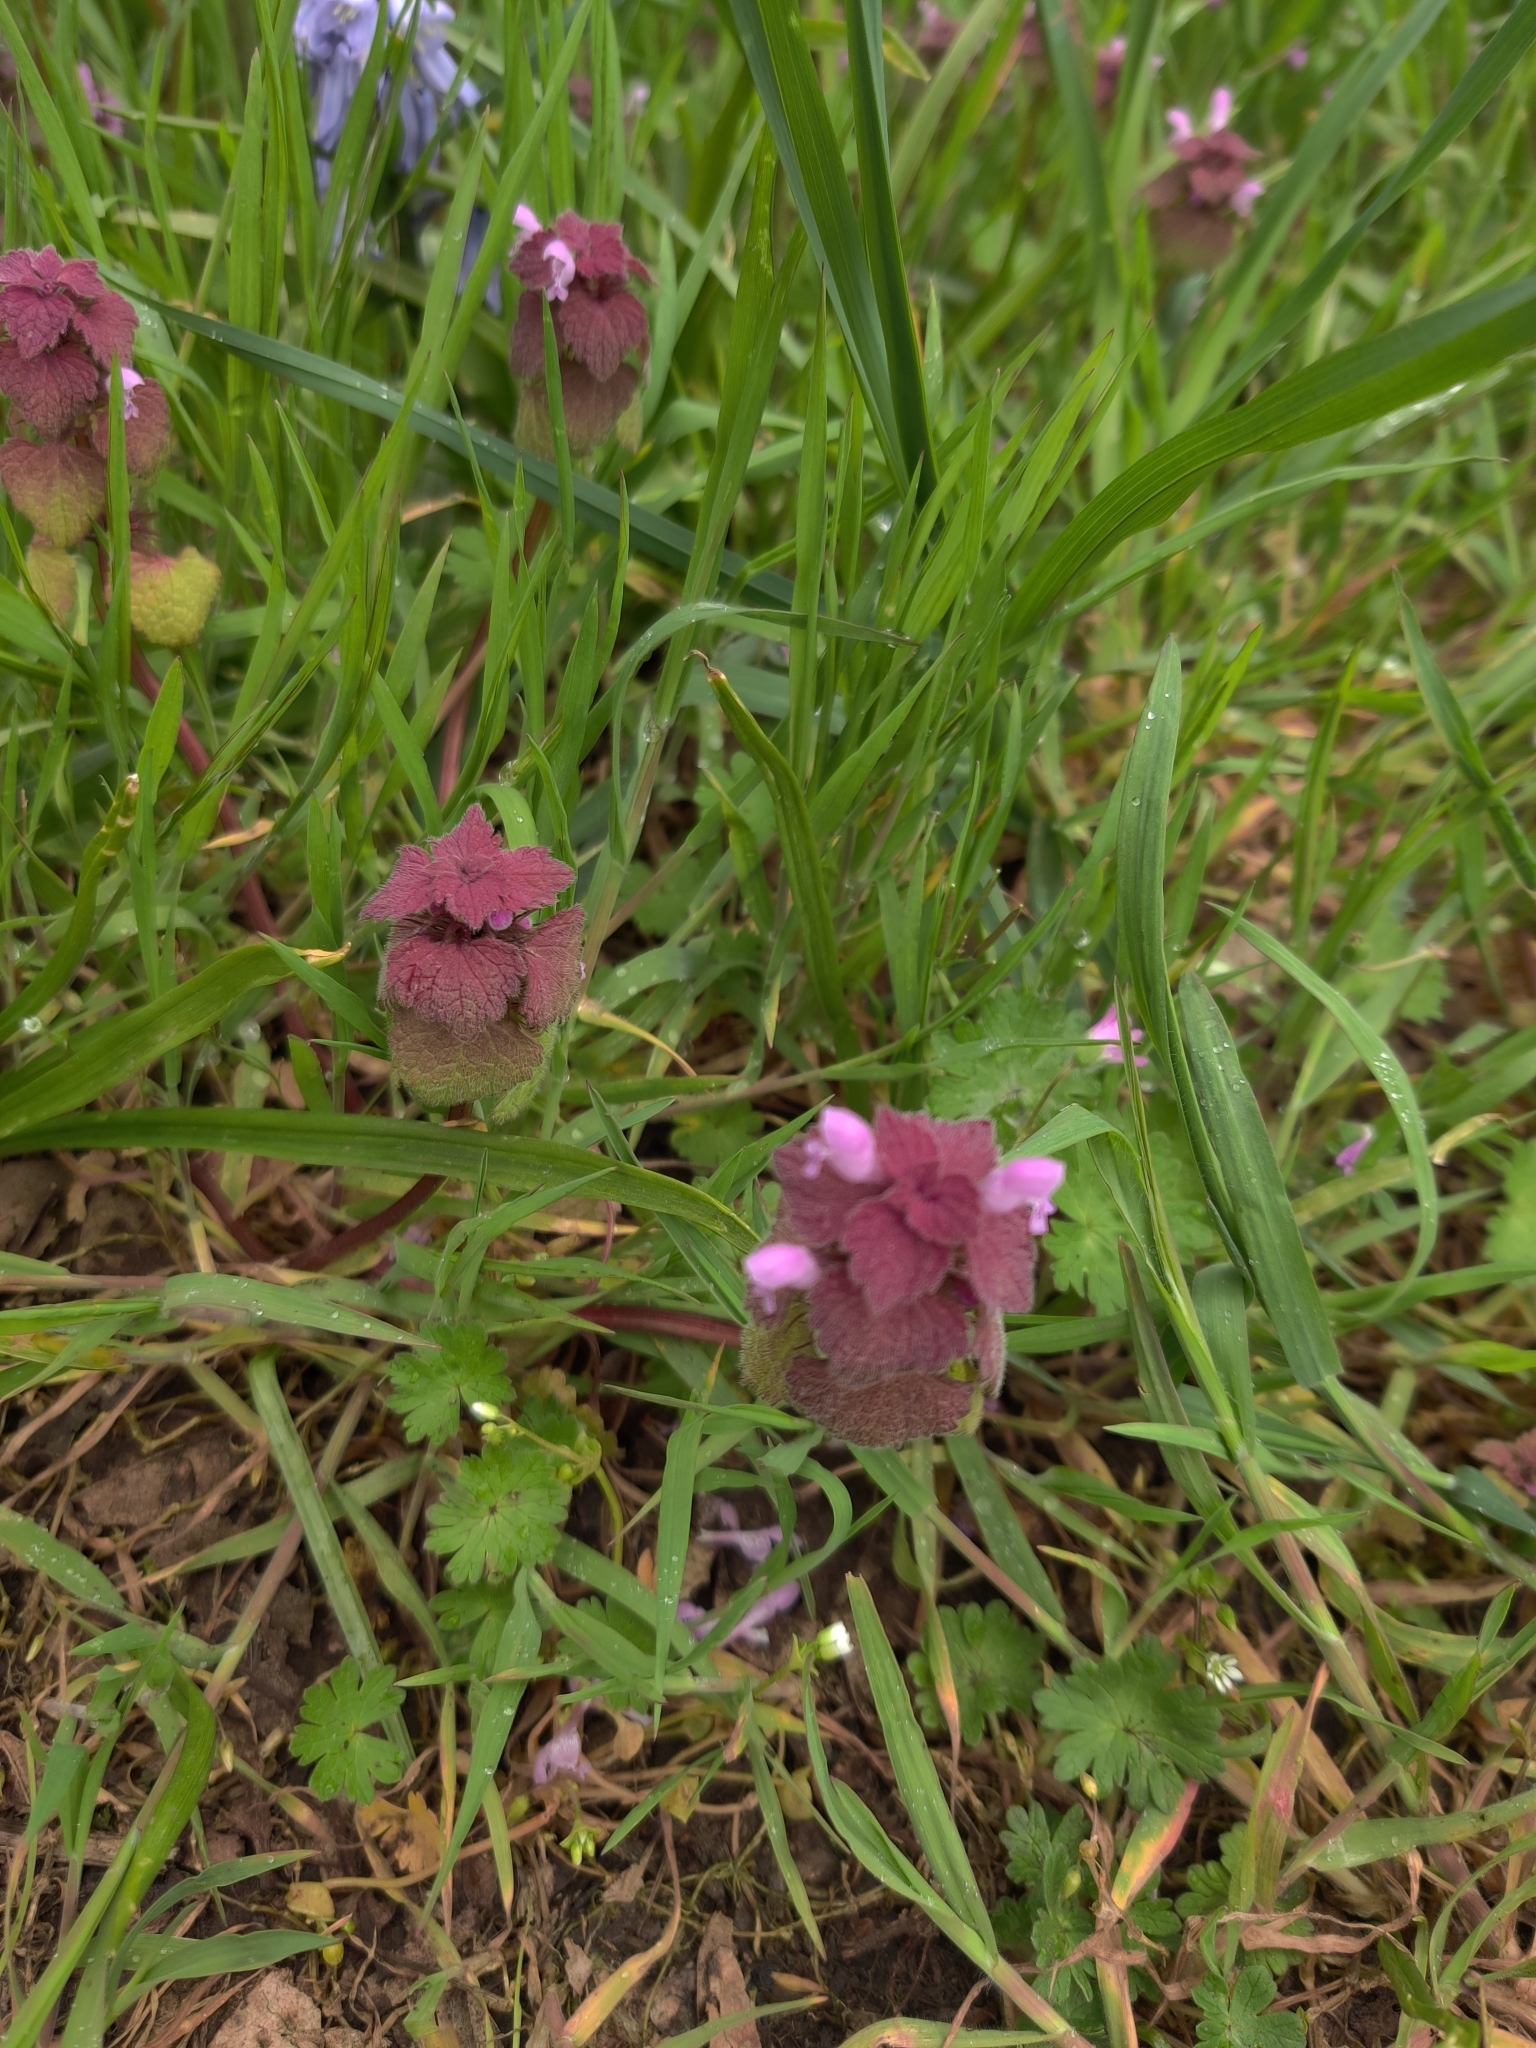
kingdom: Plantae
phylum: Tracheophyta
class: Magnoliopsida
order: Lamiales
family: Lamiaceae
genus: Lamium
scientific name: Lamium purpureum
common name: Red dead-nettle
